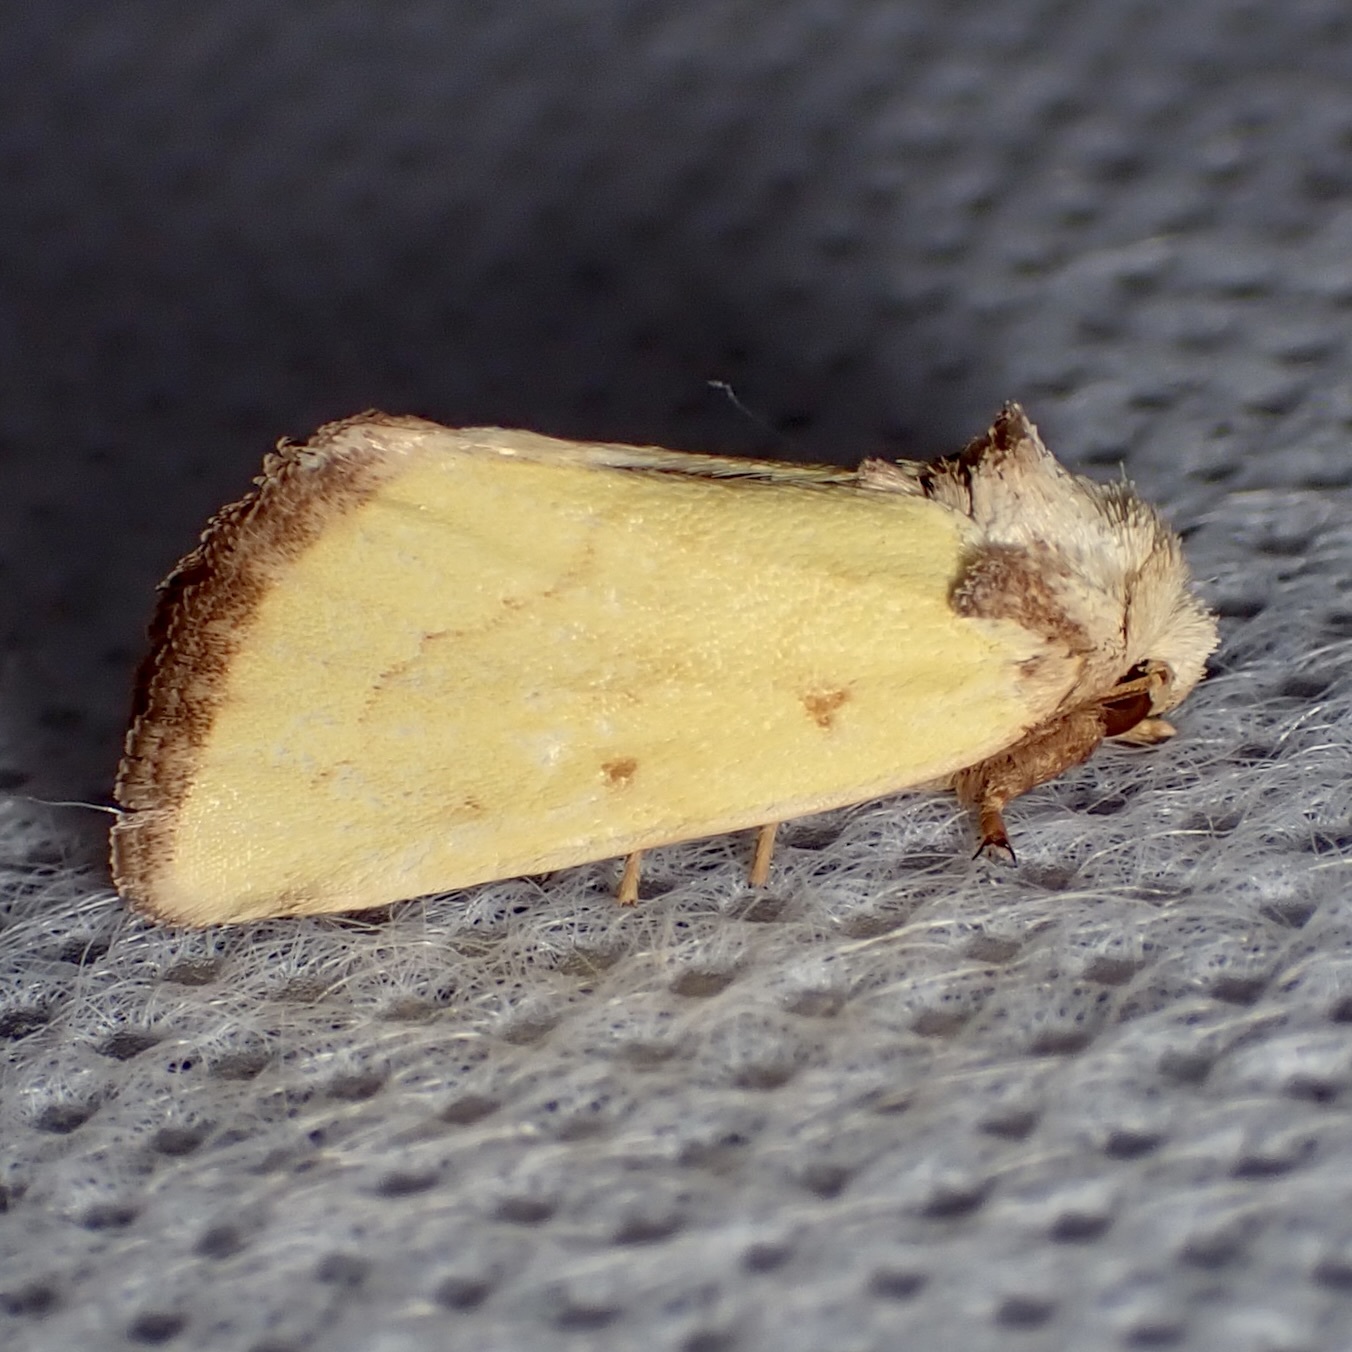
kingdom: Animalia
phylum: Arthropoda
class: Insecta
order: Lepidoptera
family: Noctuidae
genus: Nocloa
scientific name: Nocloa aliaga
